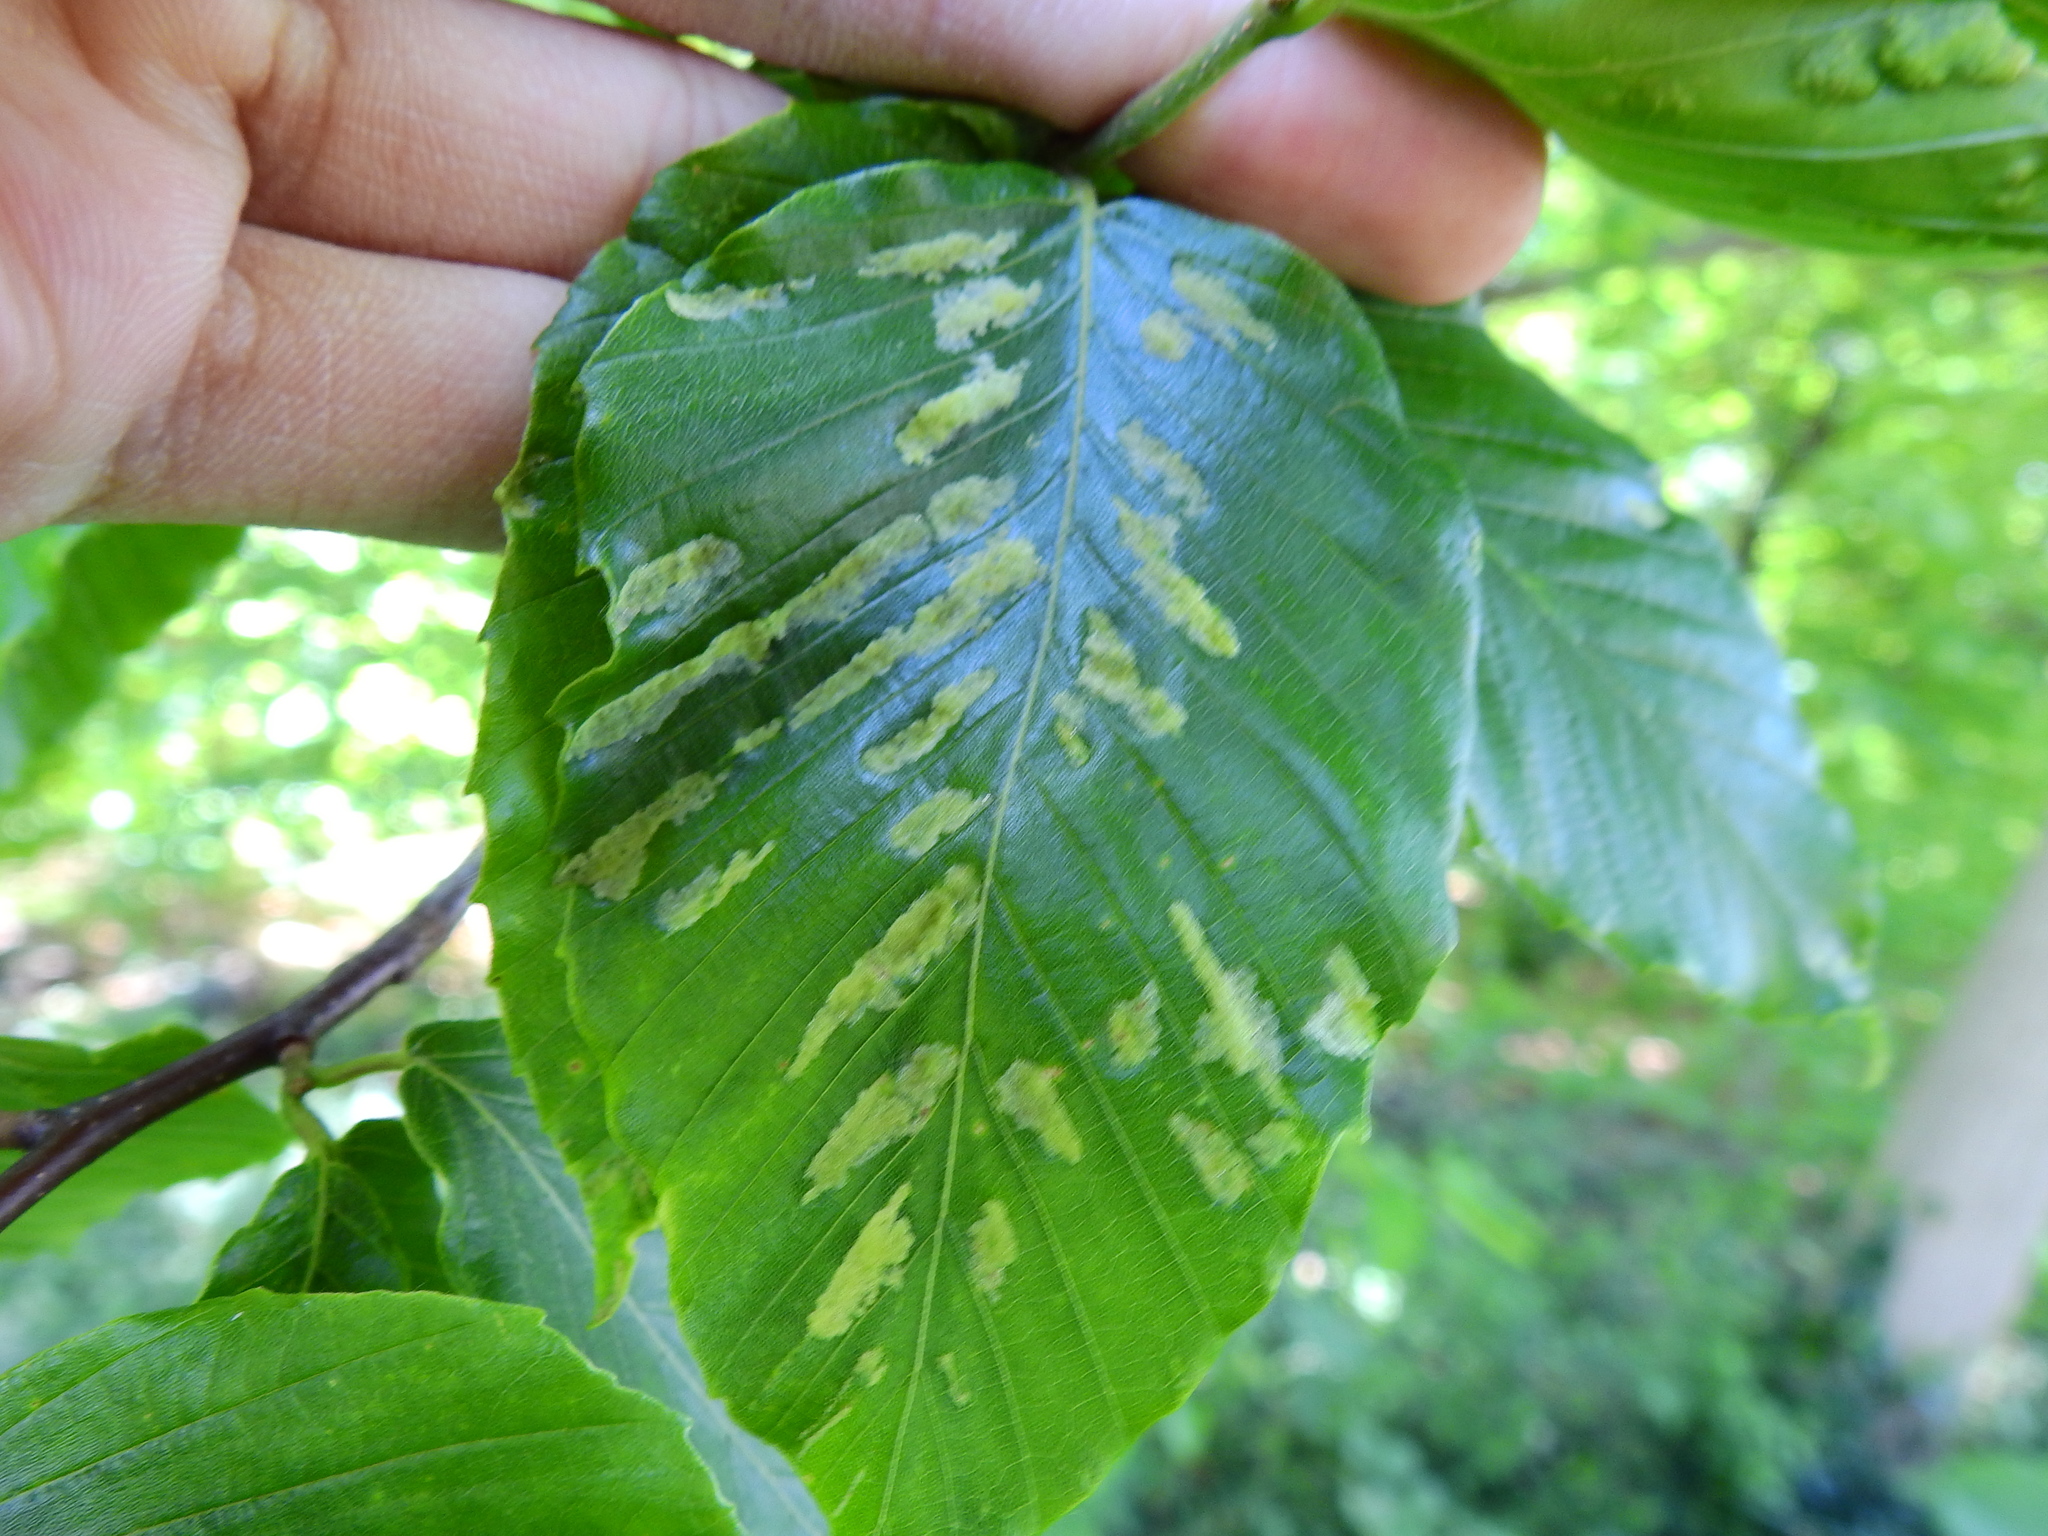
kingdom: Animalia
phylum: Arthropoda
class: Arachnida
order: Trombidiformes
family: Eriophyidae
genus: Acalitus
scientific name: Acalitus
